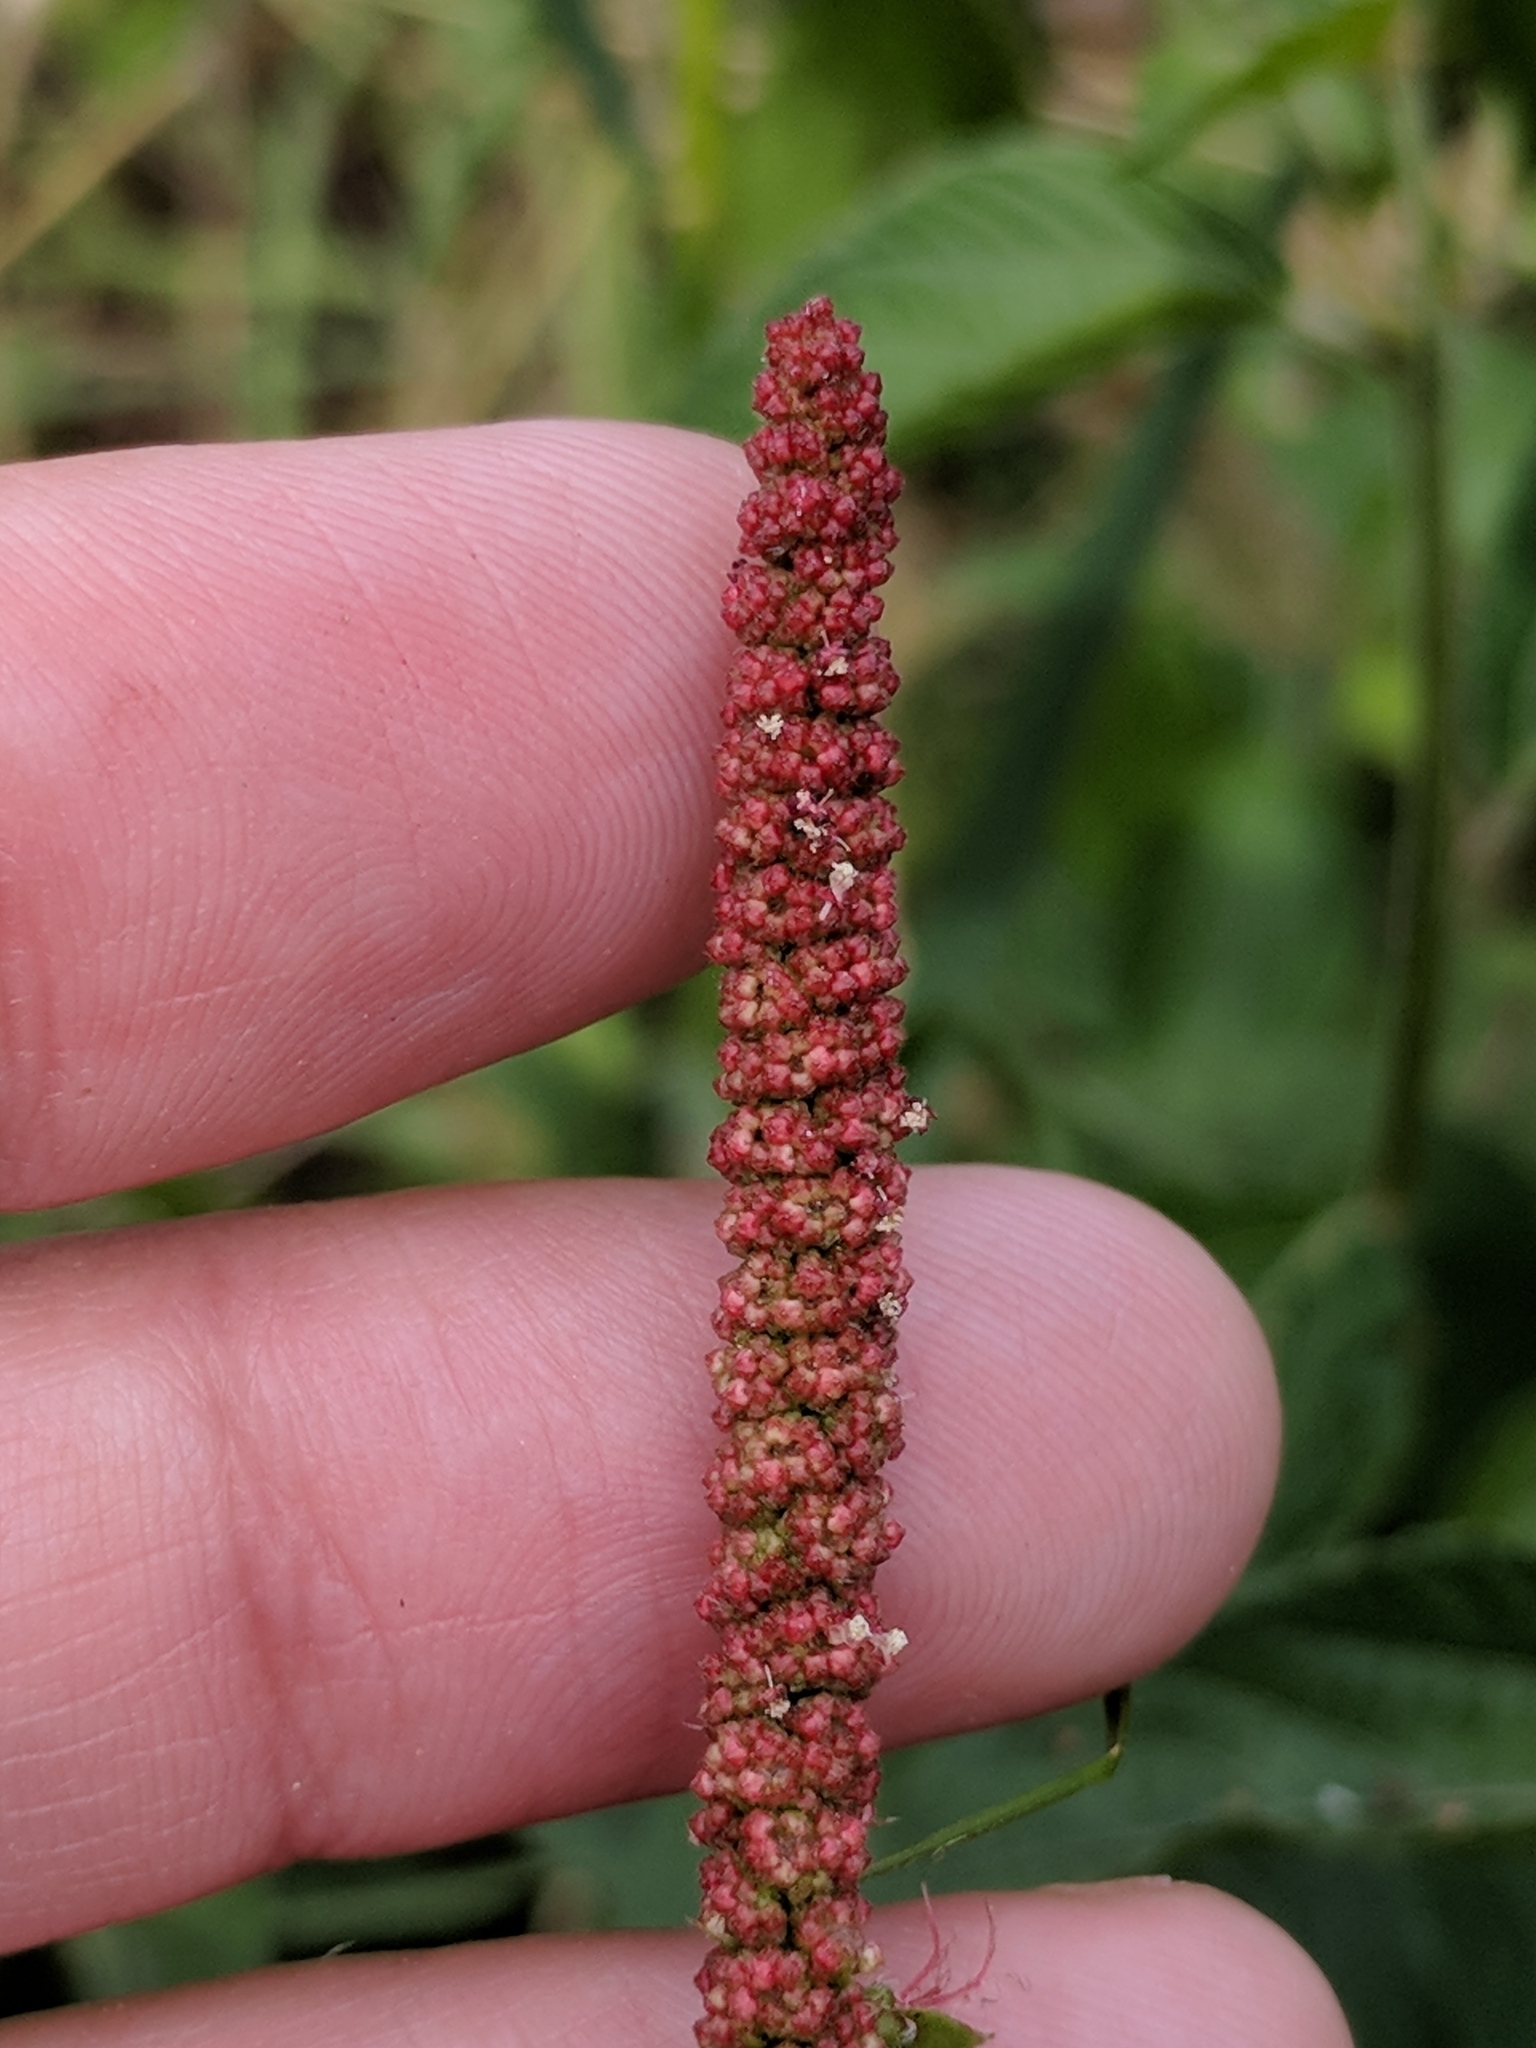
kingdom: Plantae
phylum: Tracheophyta
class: Magnoliopsida
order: Malpighiales
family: Euphorbiaceae
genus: Acalypha
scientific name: Acalypha phleoides
